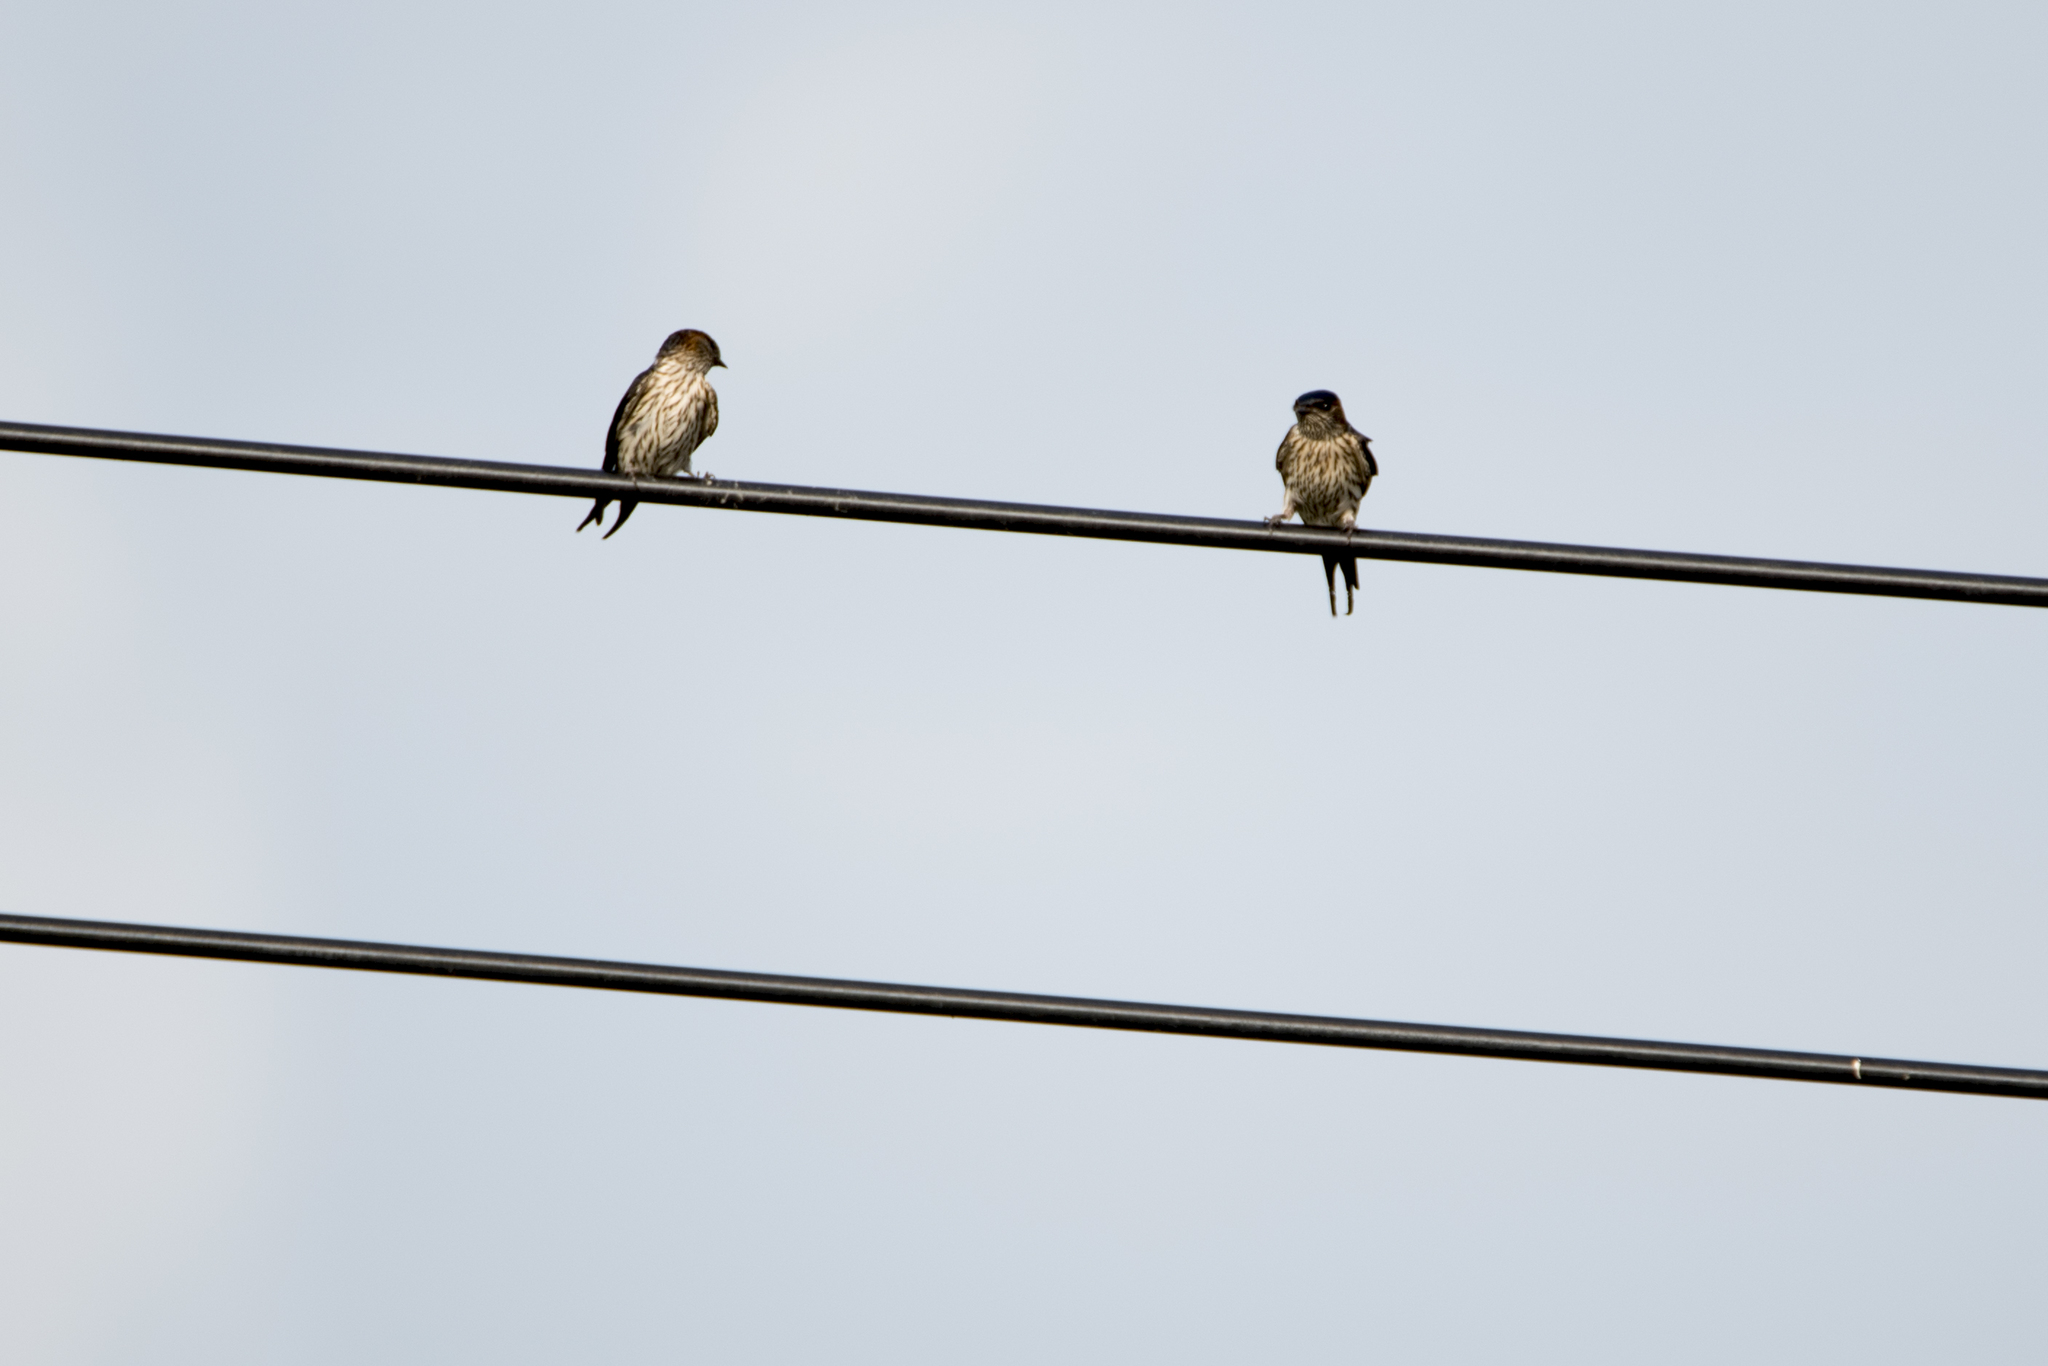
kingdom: Animalia
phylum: Chordata
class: Aves
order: Passeriformes
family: Hirundinidae
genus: Cecropis
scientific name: Cecropis striolata
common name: Striated swallow
